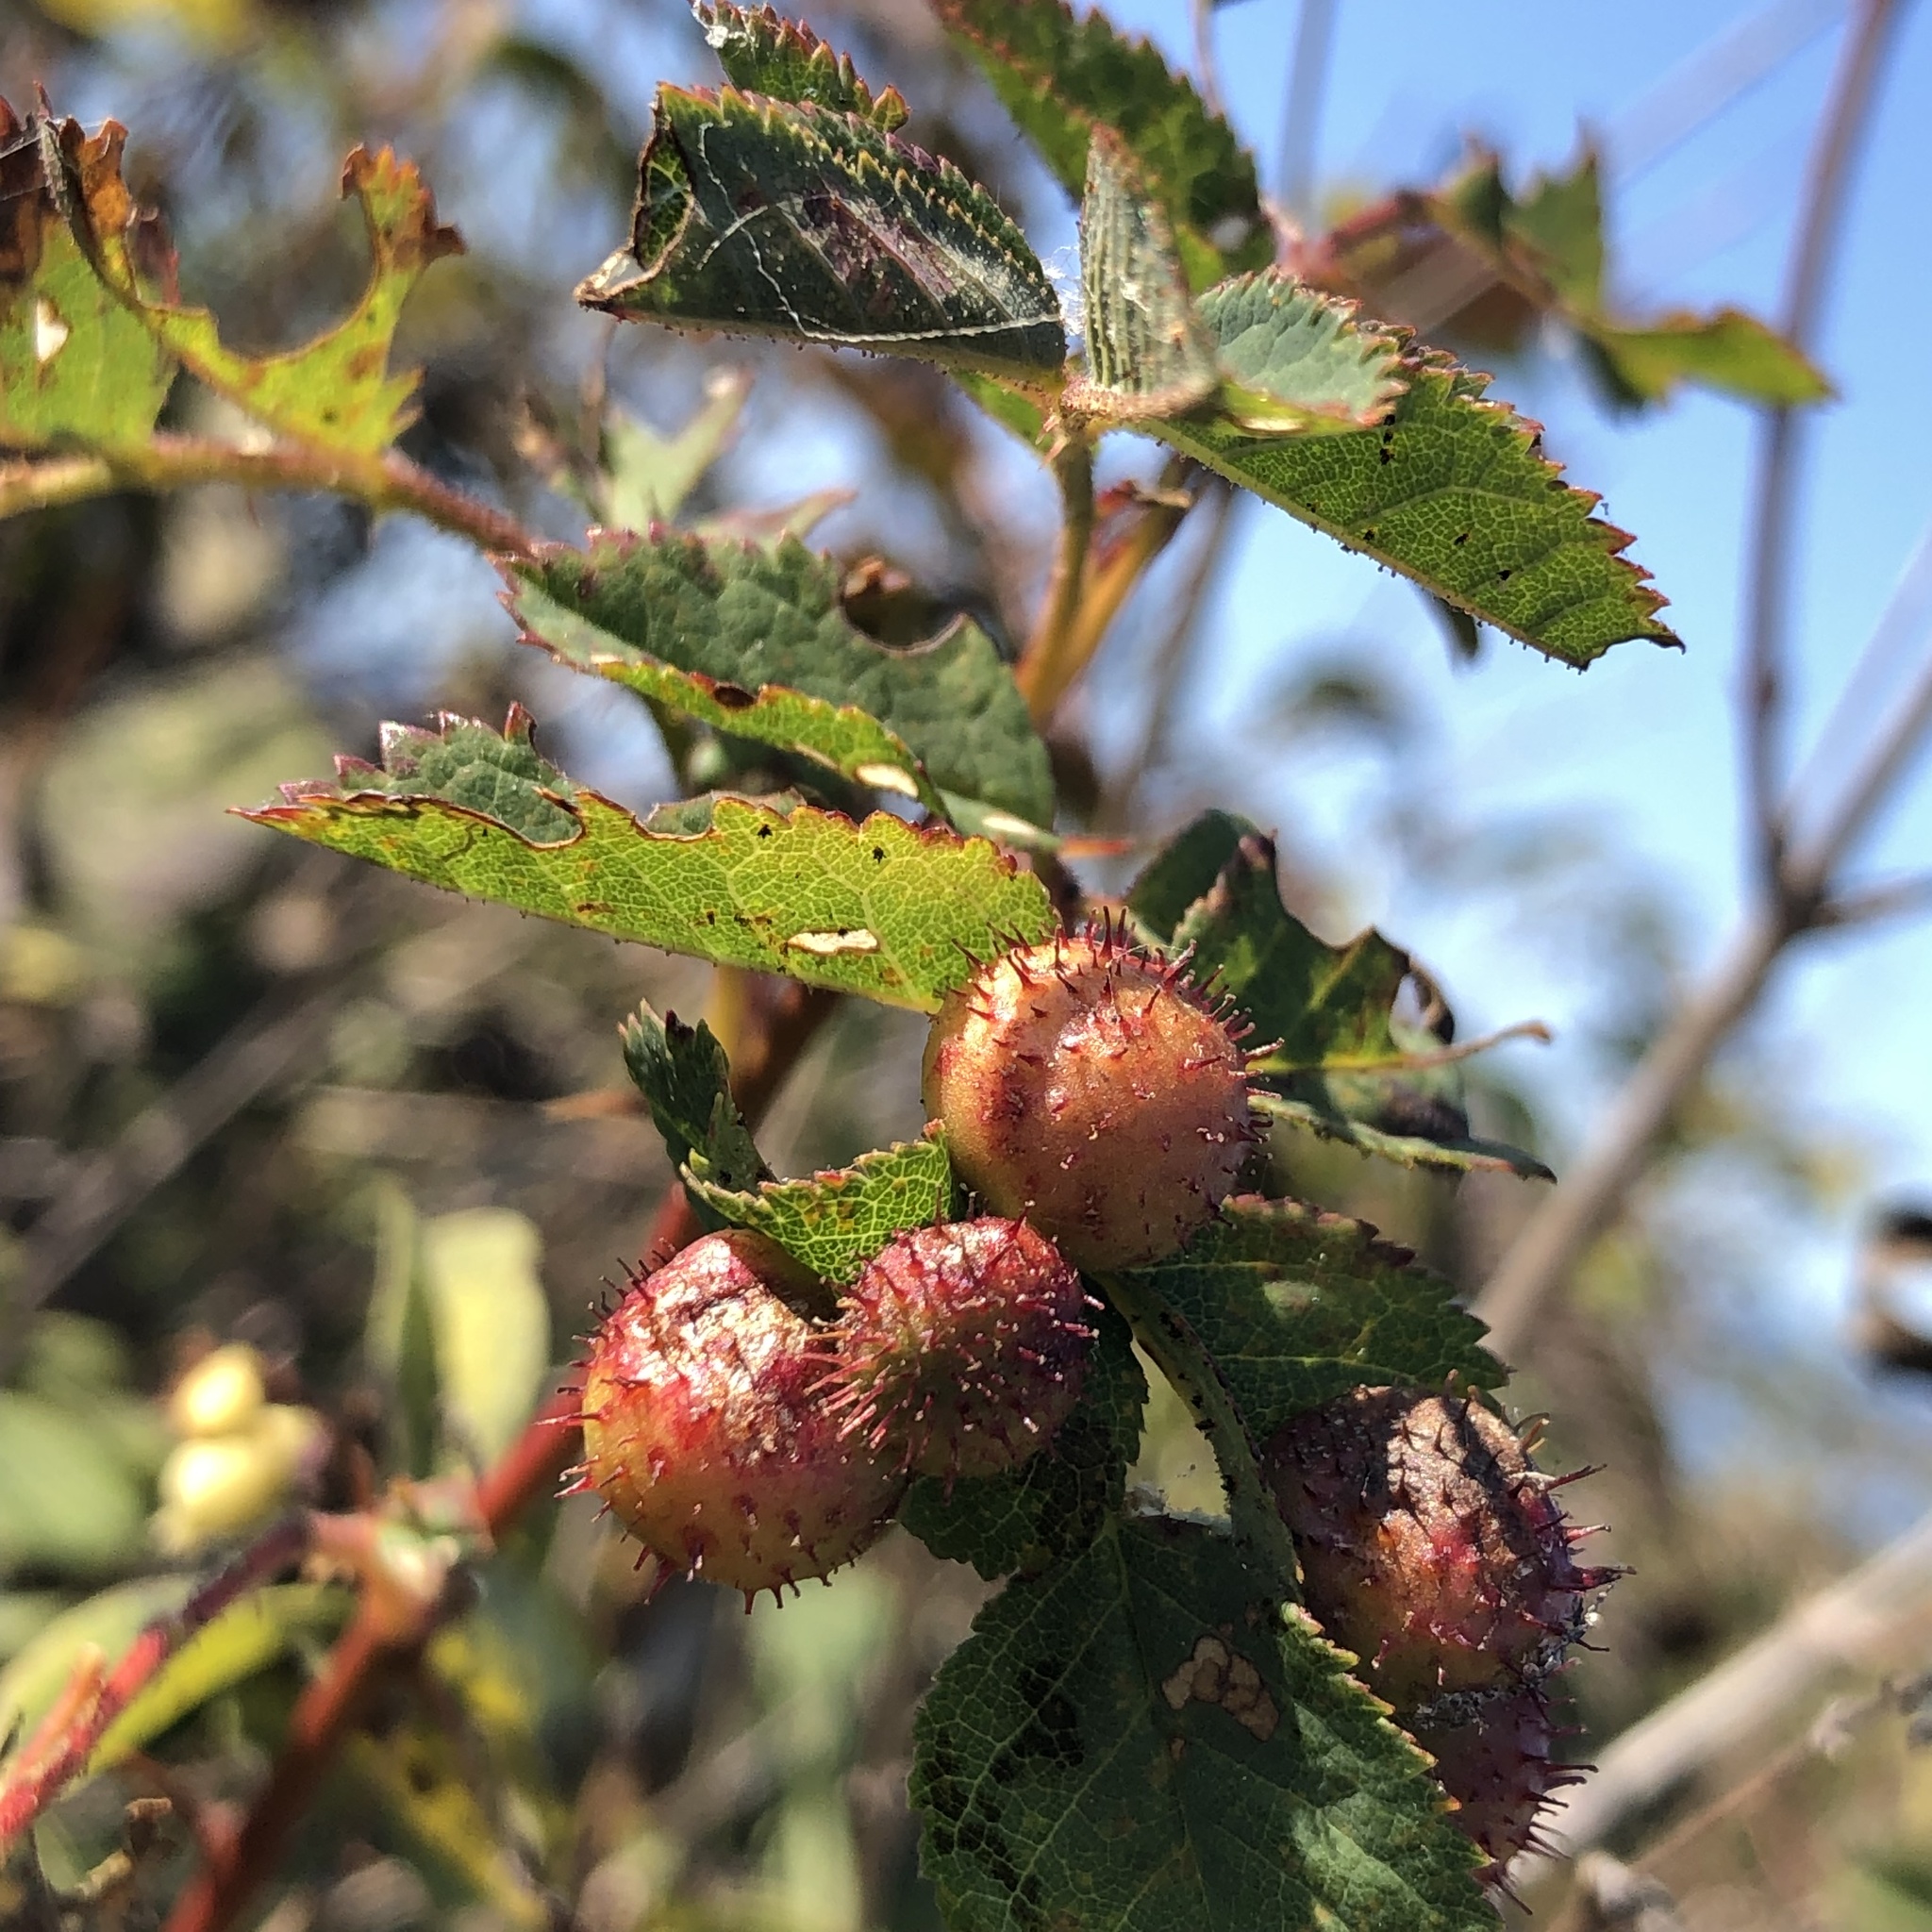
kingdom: Animalia
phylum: Arthropoda
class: Insecta
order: Hymenoptera
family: Cynipidae
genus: Diplolepis
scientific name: Diplolepis polita
